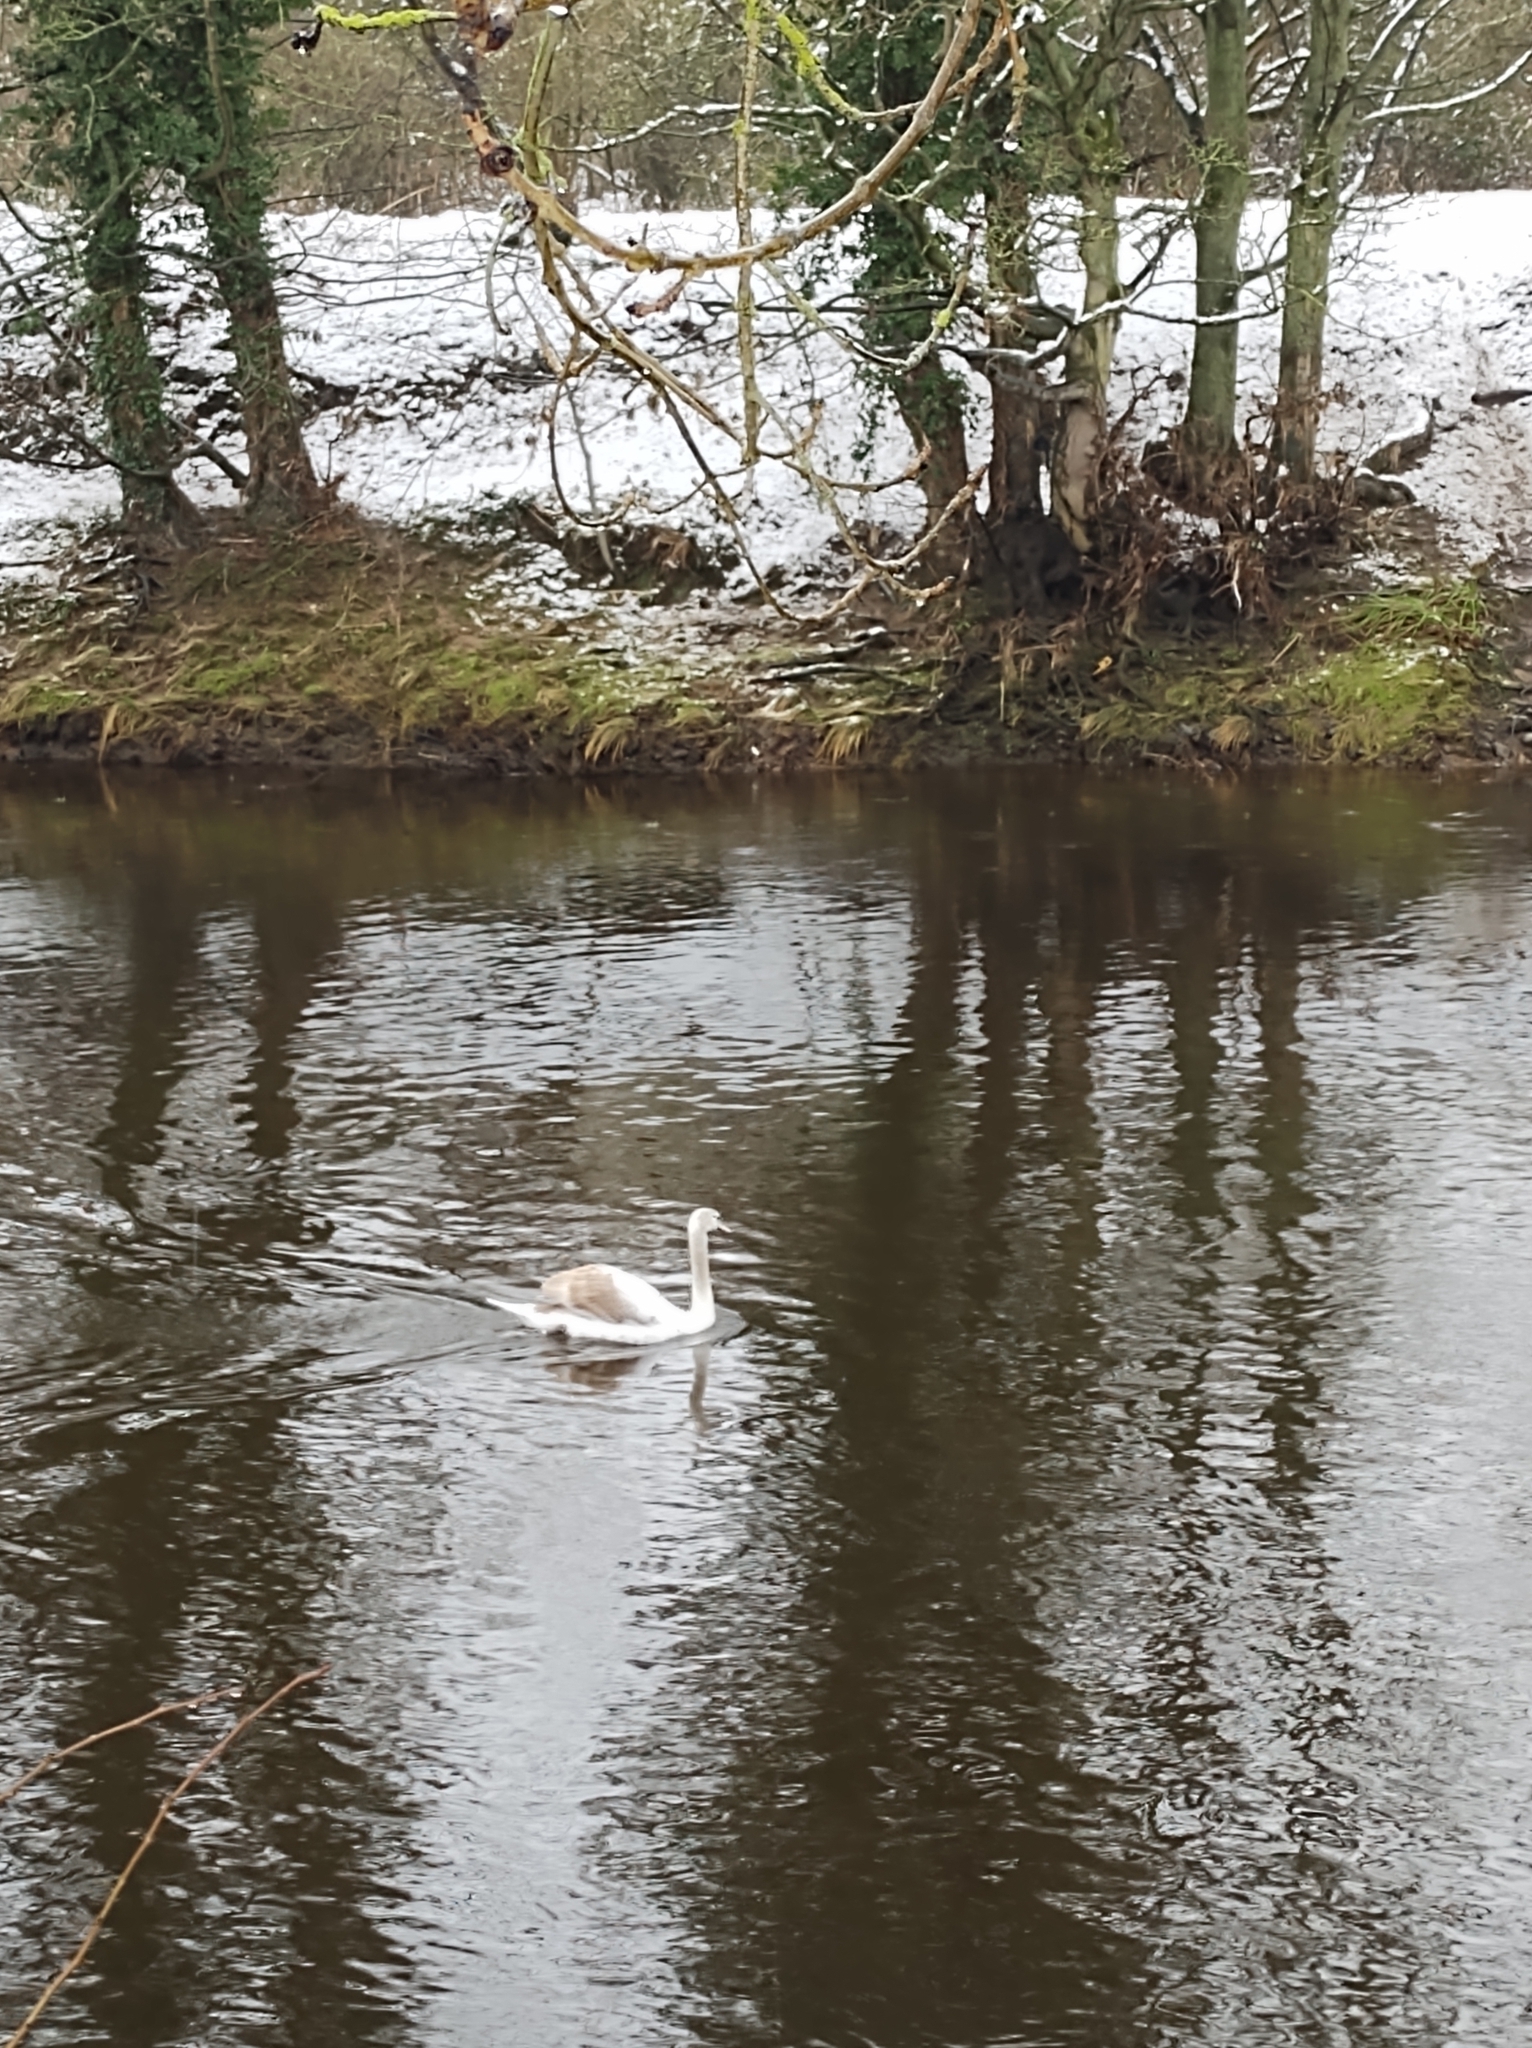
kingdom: Animalia
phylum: Chordata
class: Aves
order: Anseriformes
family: Anatidae
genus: Cygnus
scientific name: Cygnus olor
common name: Mute swan
